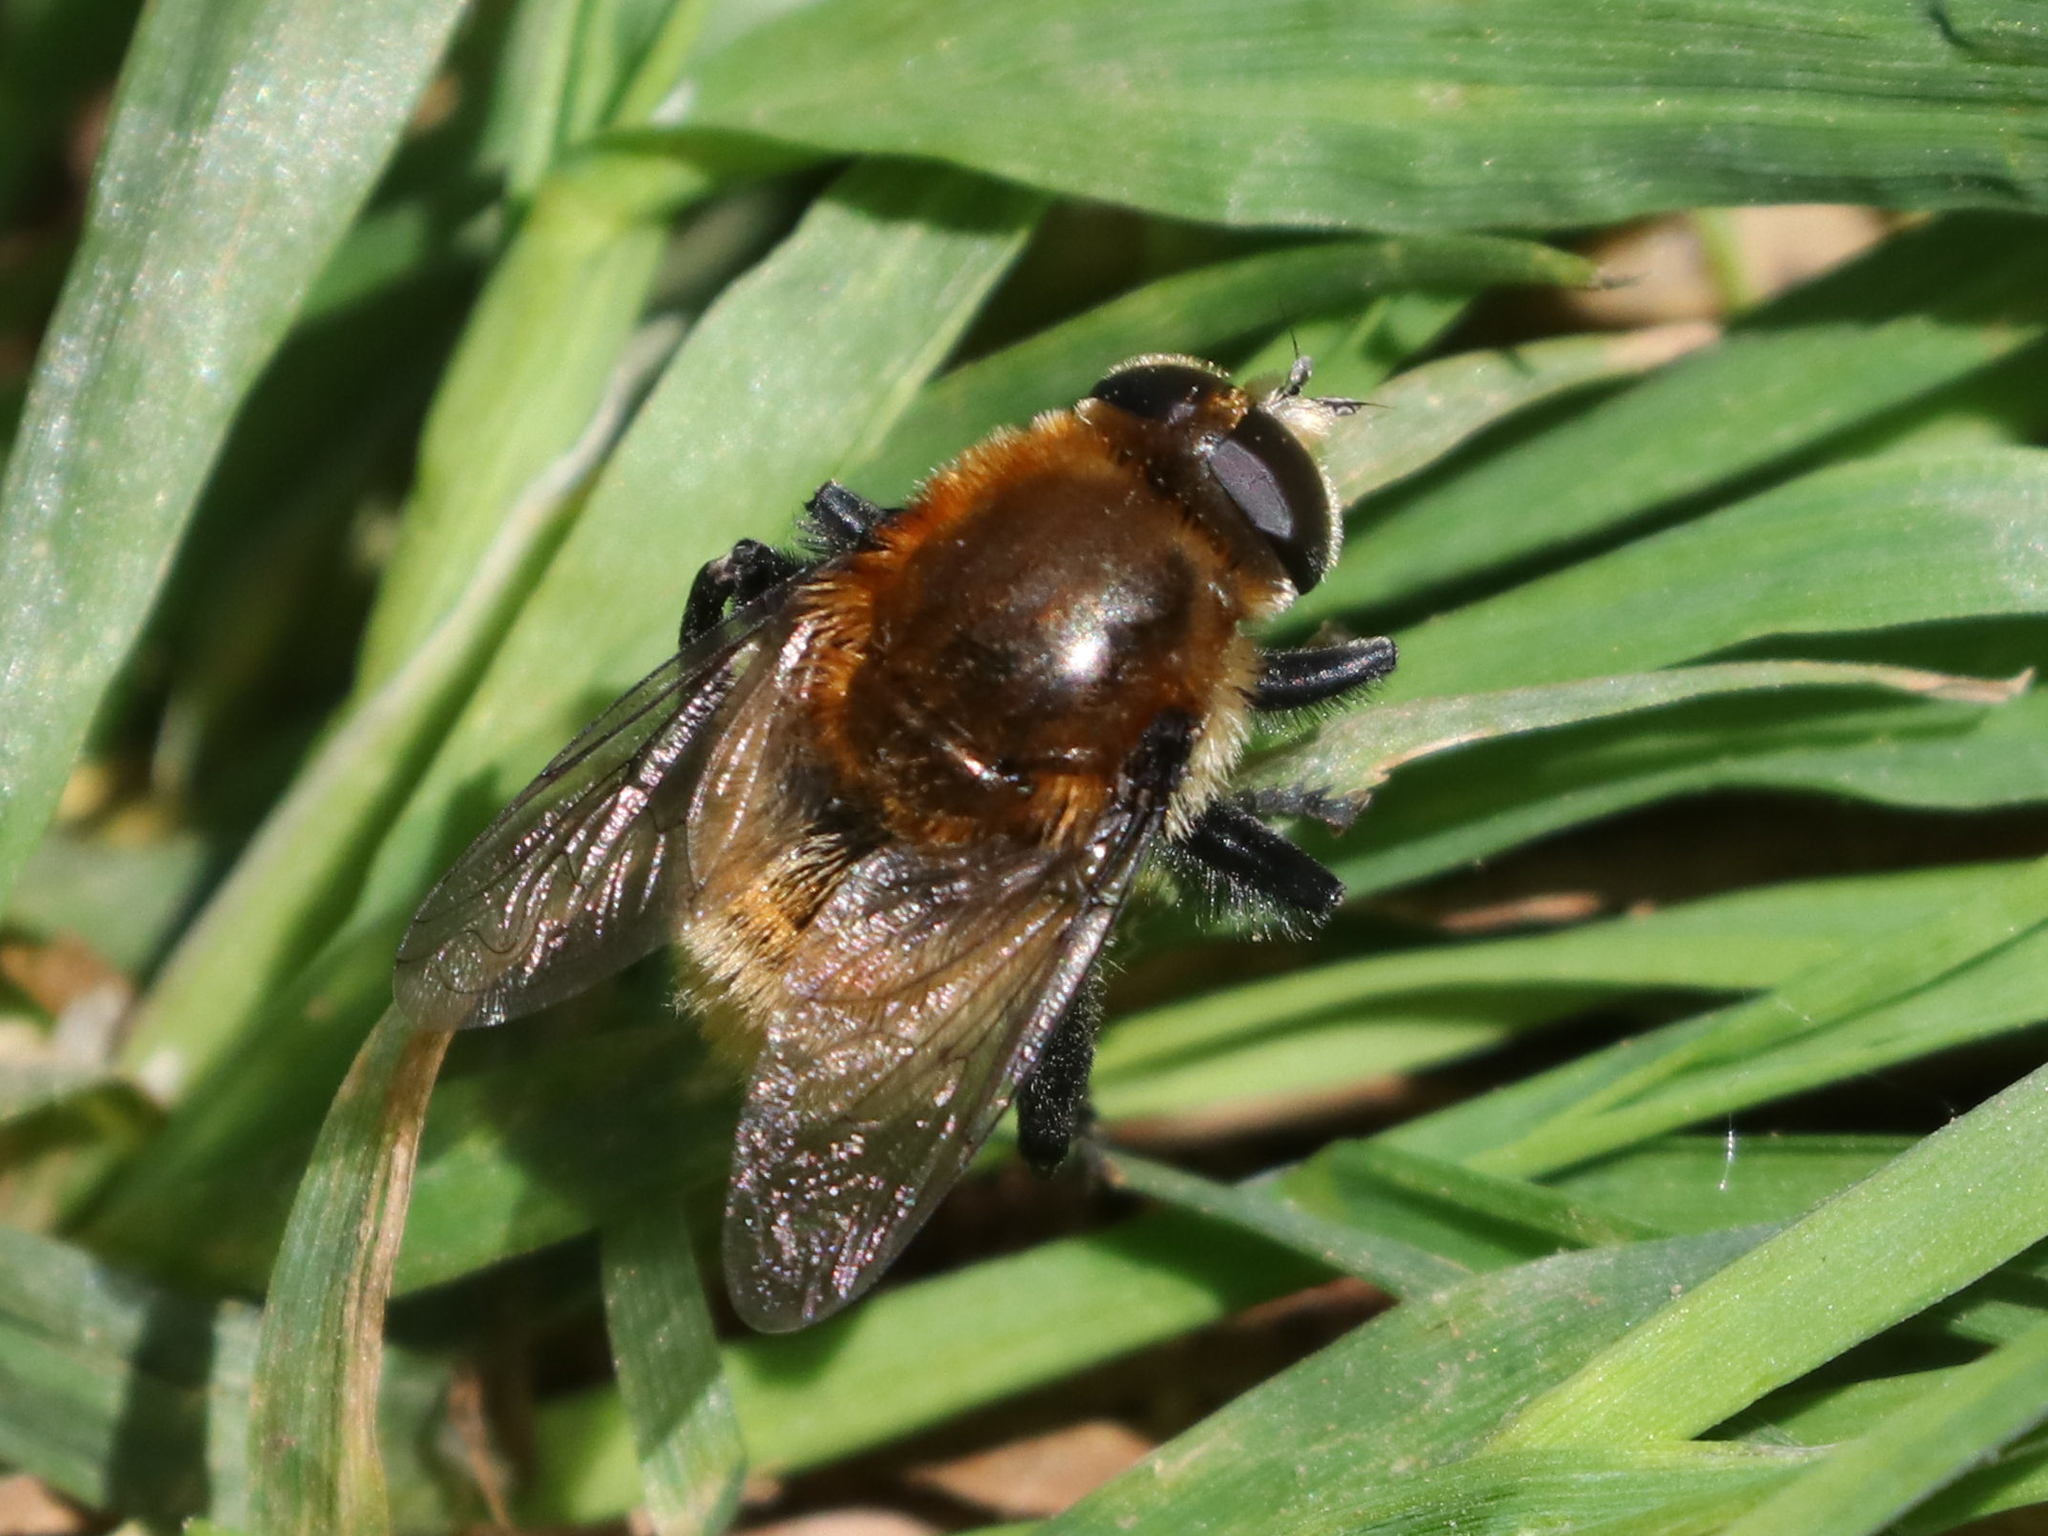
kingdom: Animalia
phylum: Arthropoda
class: Insecta
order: Diptera
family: Syrphidae
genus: Merodon
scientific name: Merodon equestris
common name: Greater bulb-fly
